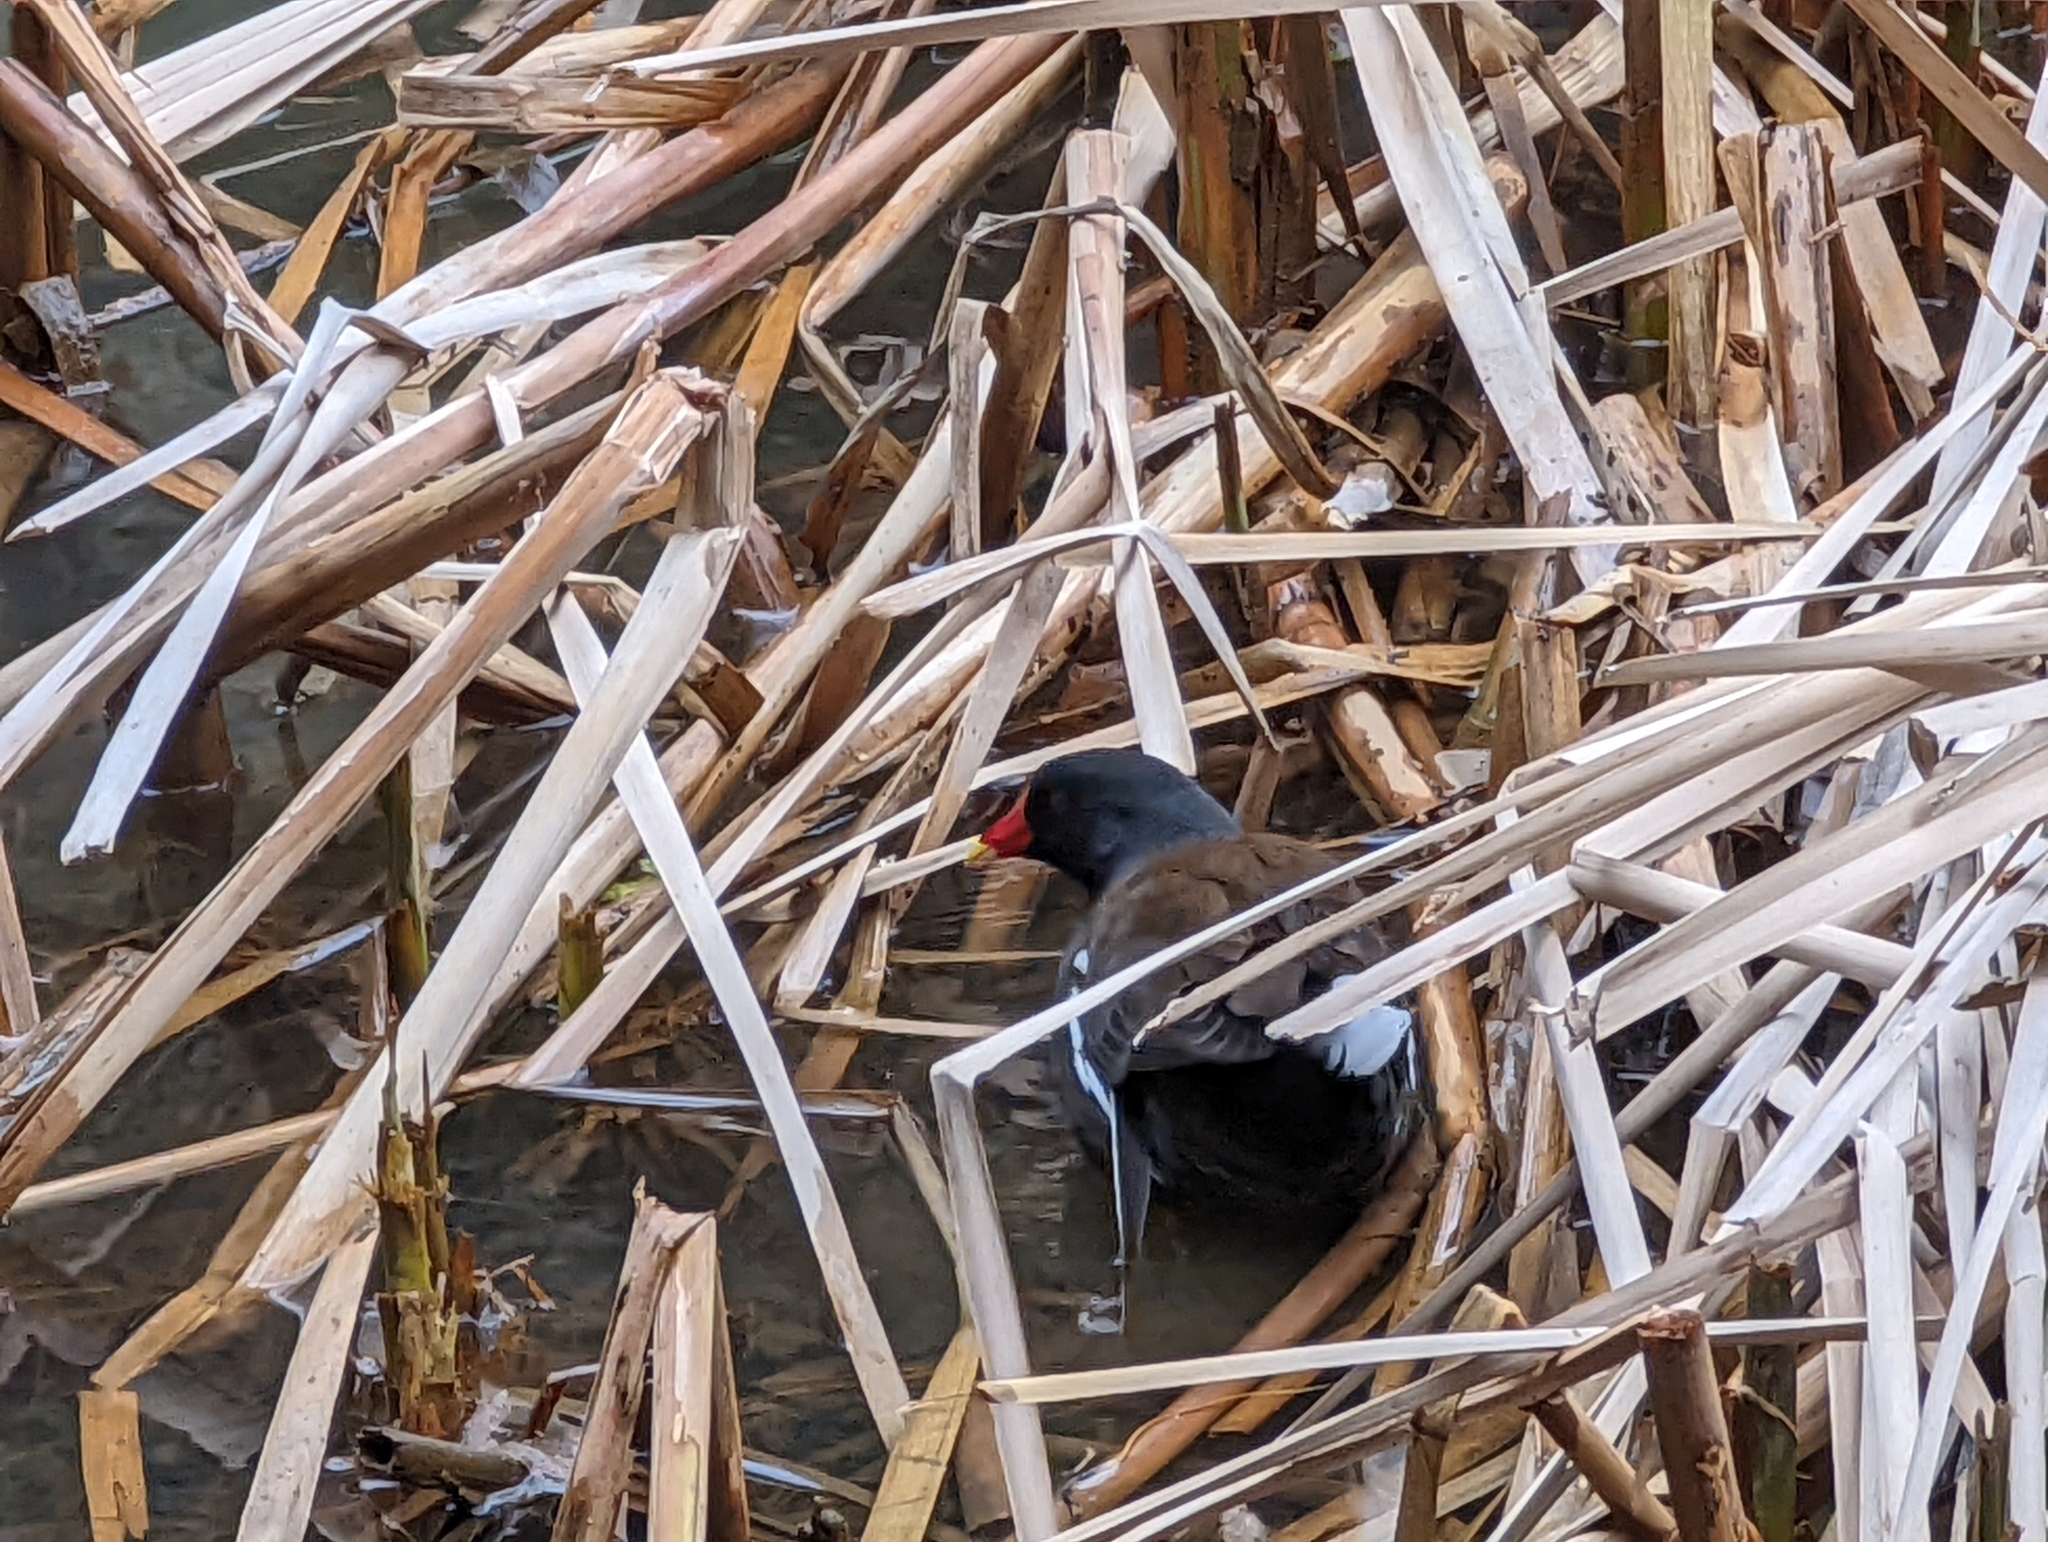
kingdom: Animalia
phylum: Chordata
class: Aves
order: Gruiformes
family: Rallidae
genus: Gallinula
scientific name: Gallinula chloropus
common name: Common moorhen
